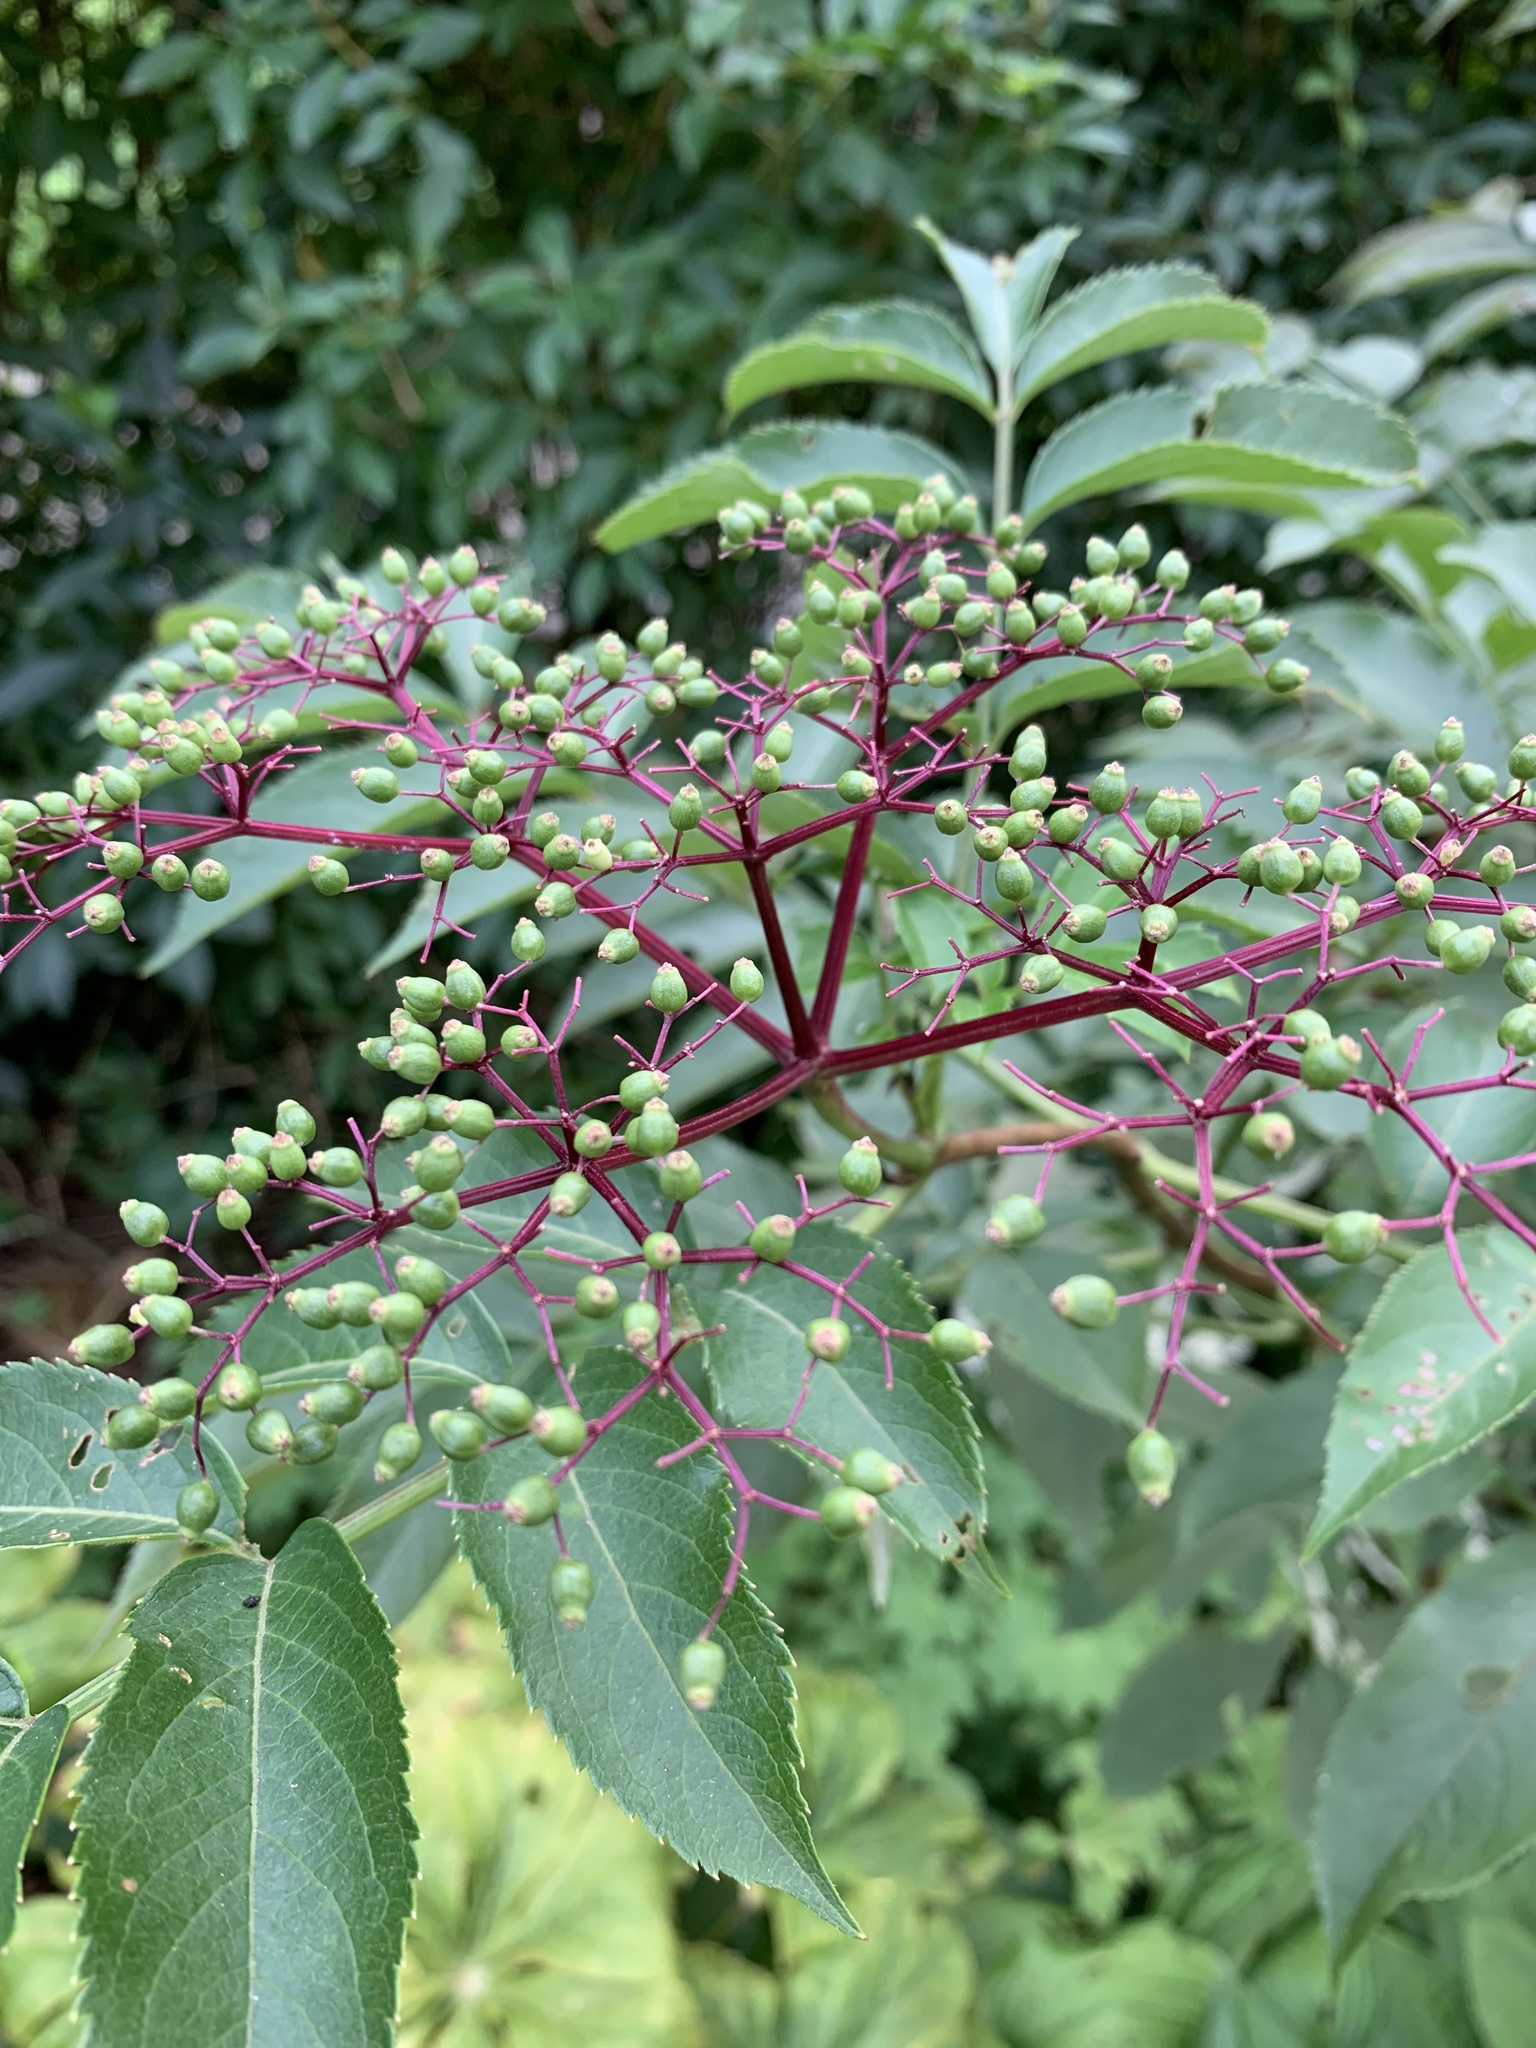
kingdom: Plantae
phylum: Tracheophyta
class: Magnoliopsida
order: Dipsacales
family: Viburnaceae
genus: Sambucus
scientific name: Sambucus canadensis
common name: American elder
